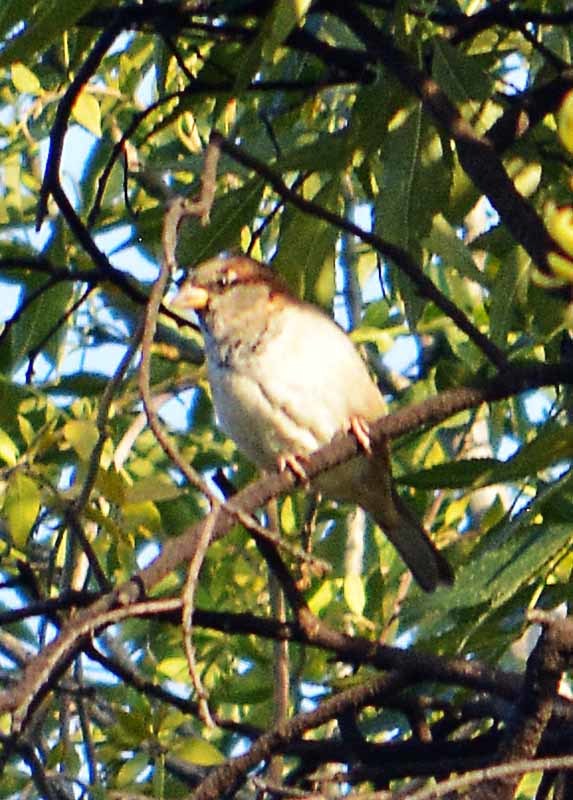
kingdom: Animalia
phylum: Chordata
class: Aves
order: Passeriformes
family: Passeridae
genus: Passer
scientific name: Passer domesticus
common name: House sparrow
